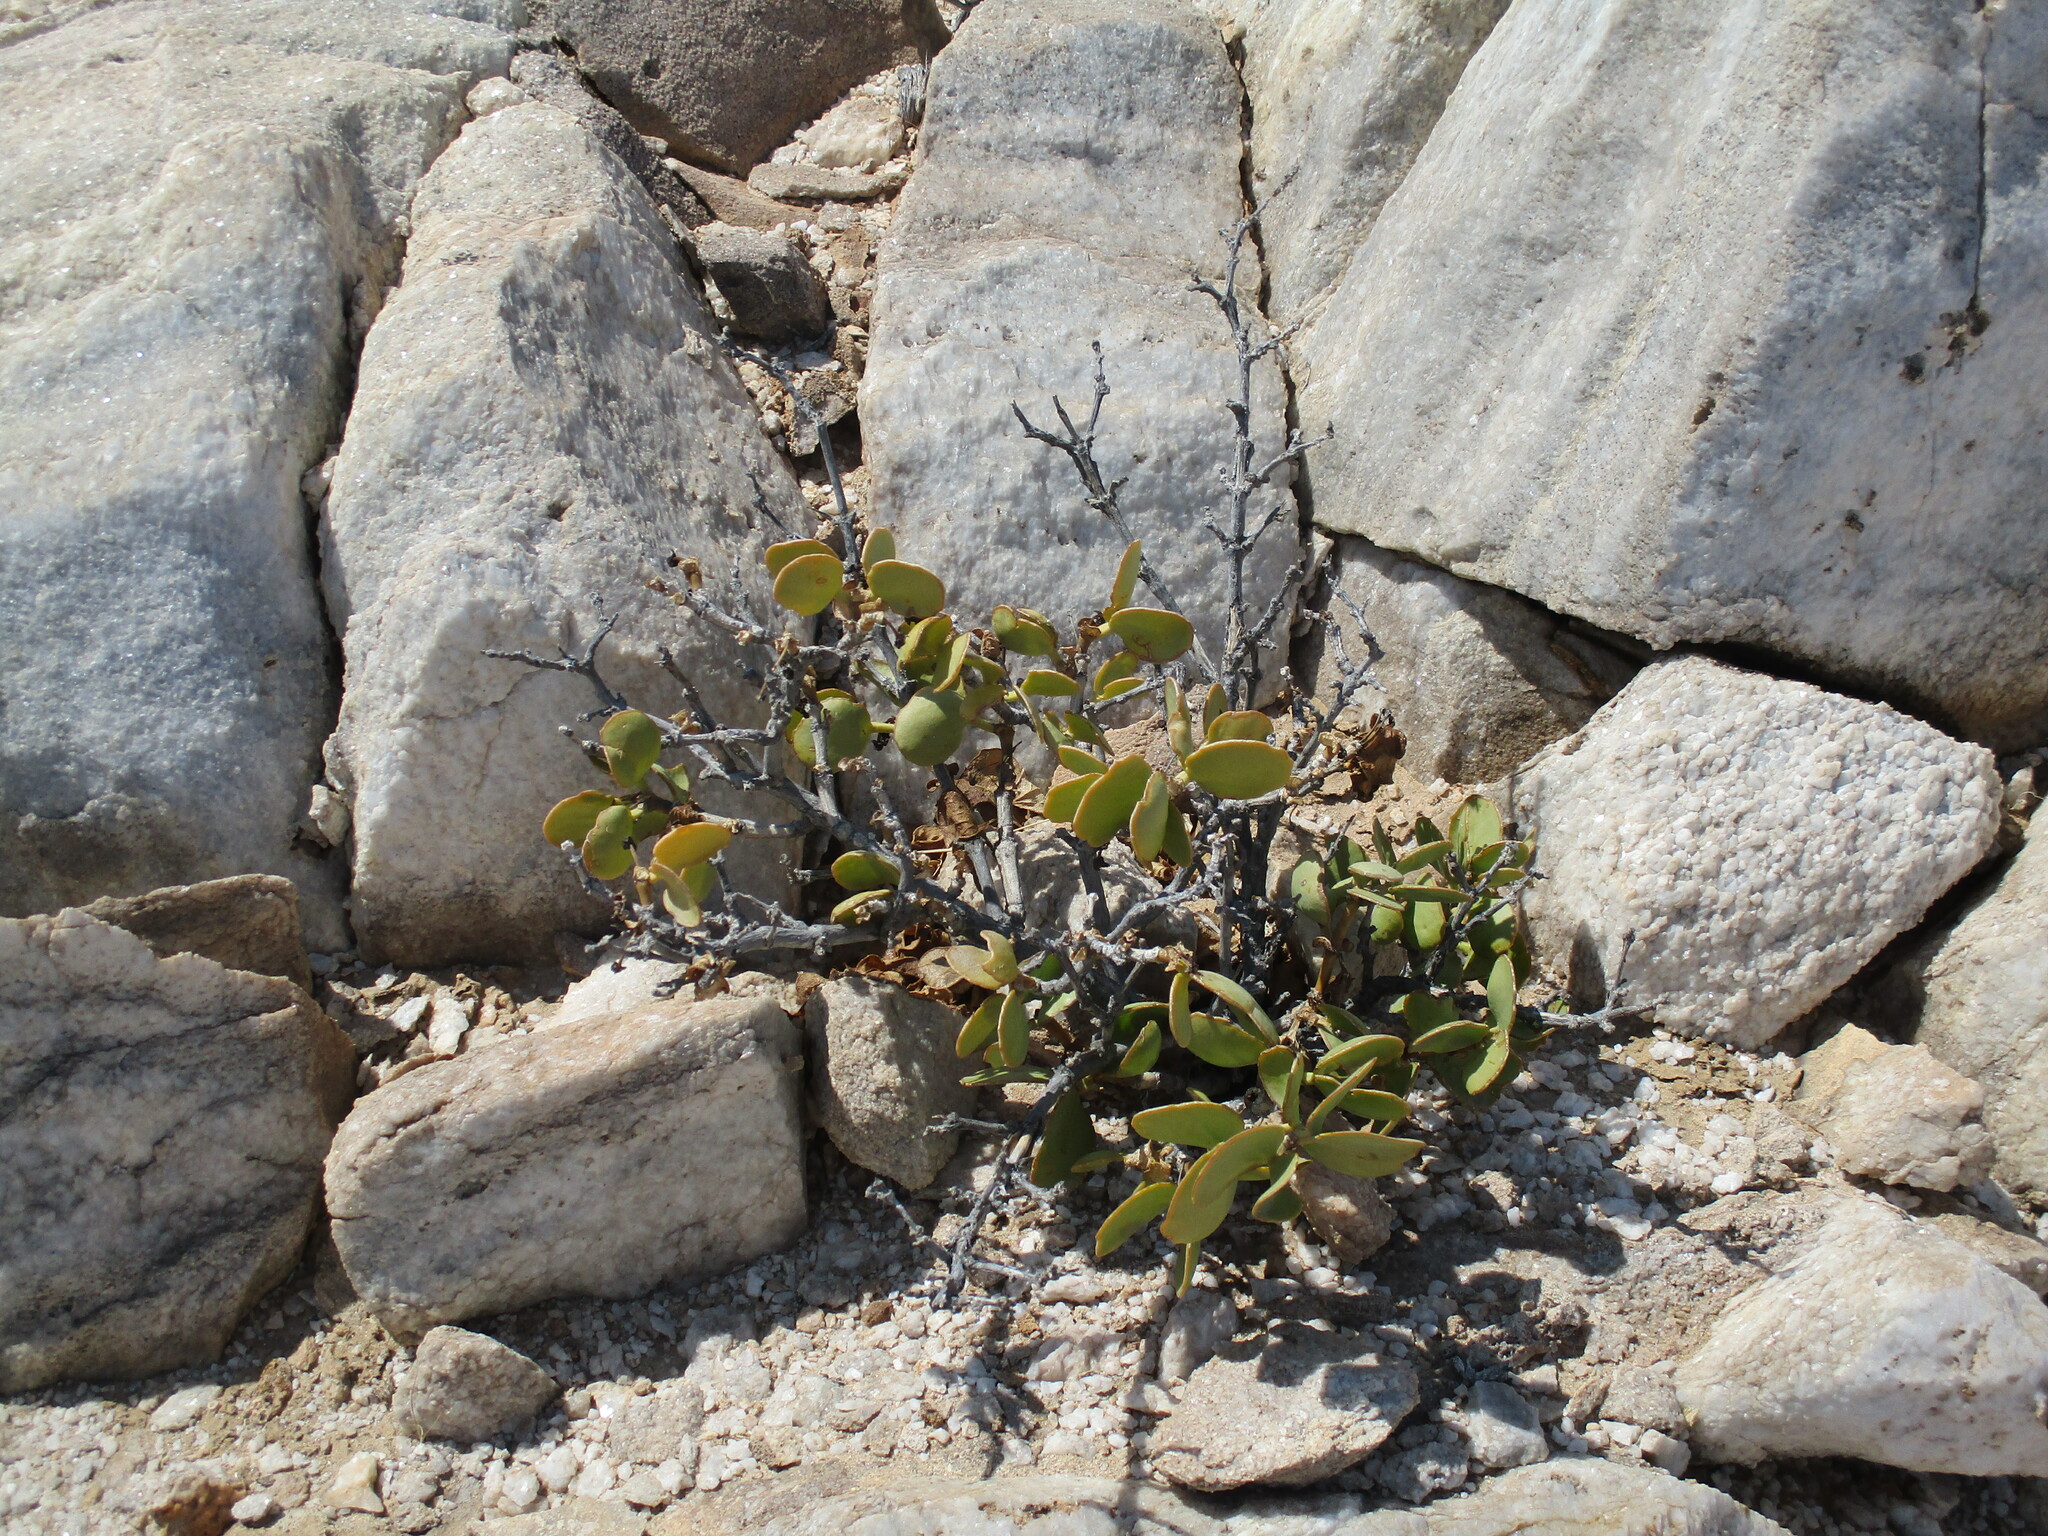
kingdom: Plantae
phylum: Tracheophyta
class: Magnoliopsida
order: Zygophyllales
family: Zygophyllaceae
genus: Tetraena
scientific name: Tetraena stapfii
